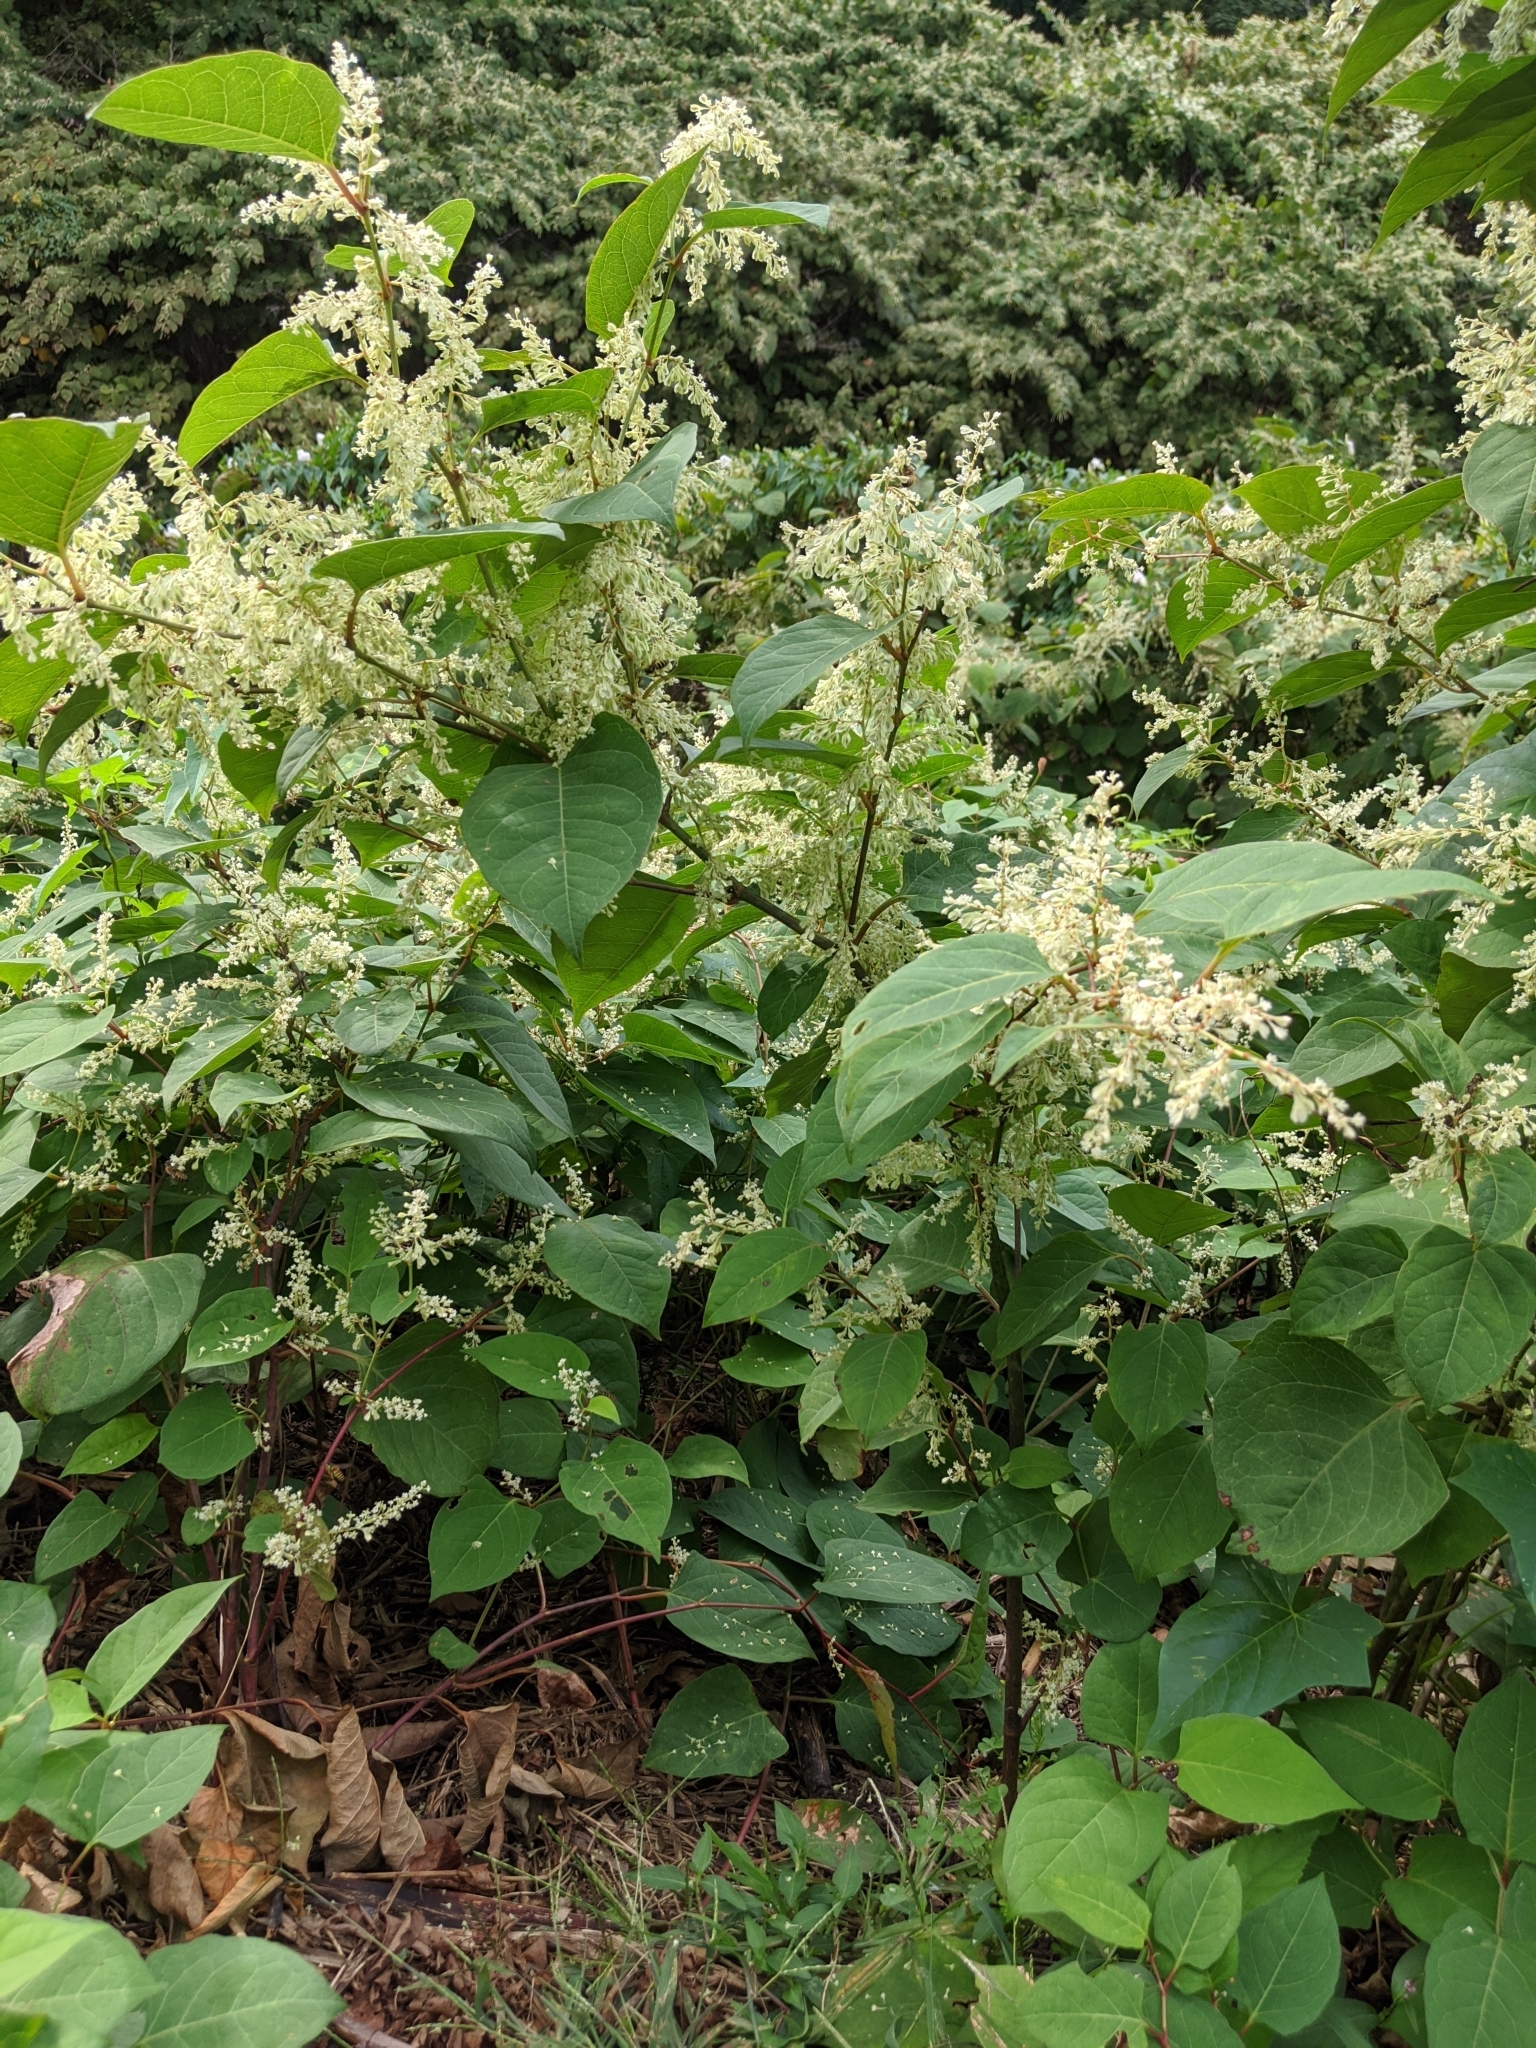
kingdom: Plantae
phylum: Tracheophyta
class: Magnoliopsida
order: Caryophyllales
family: Polygonaceae
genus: Reynoutria
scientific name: Reynoutria japonica
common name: Japanese knotweed
